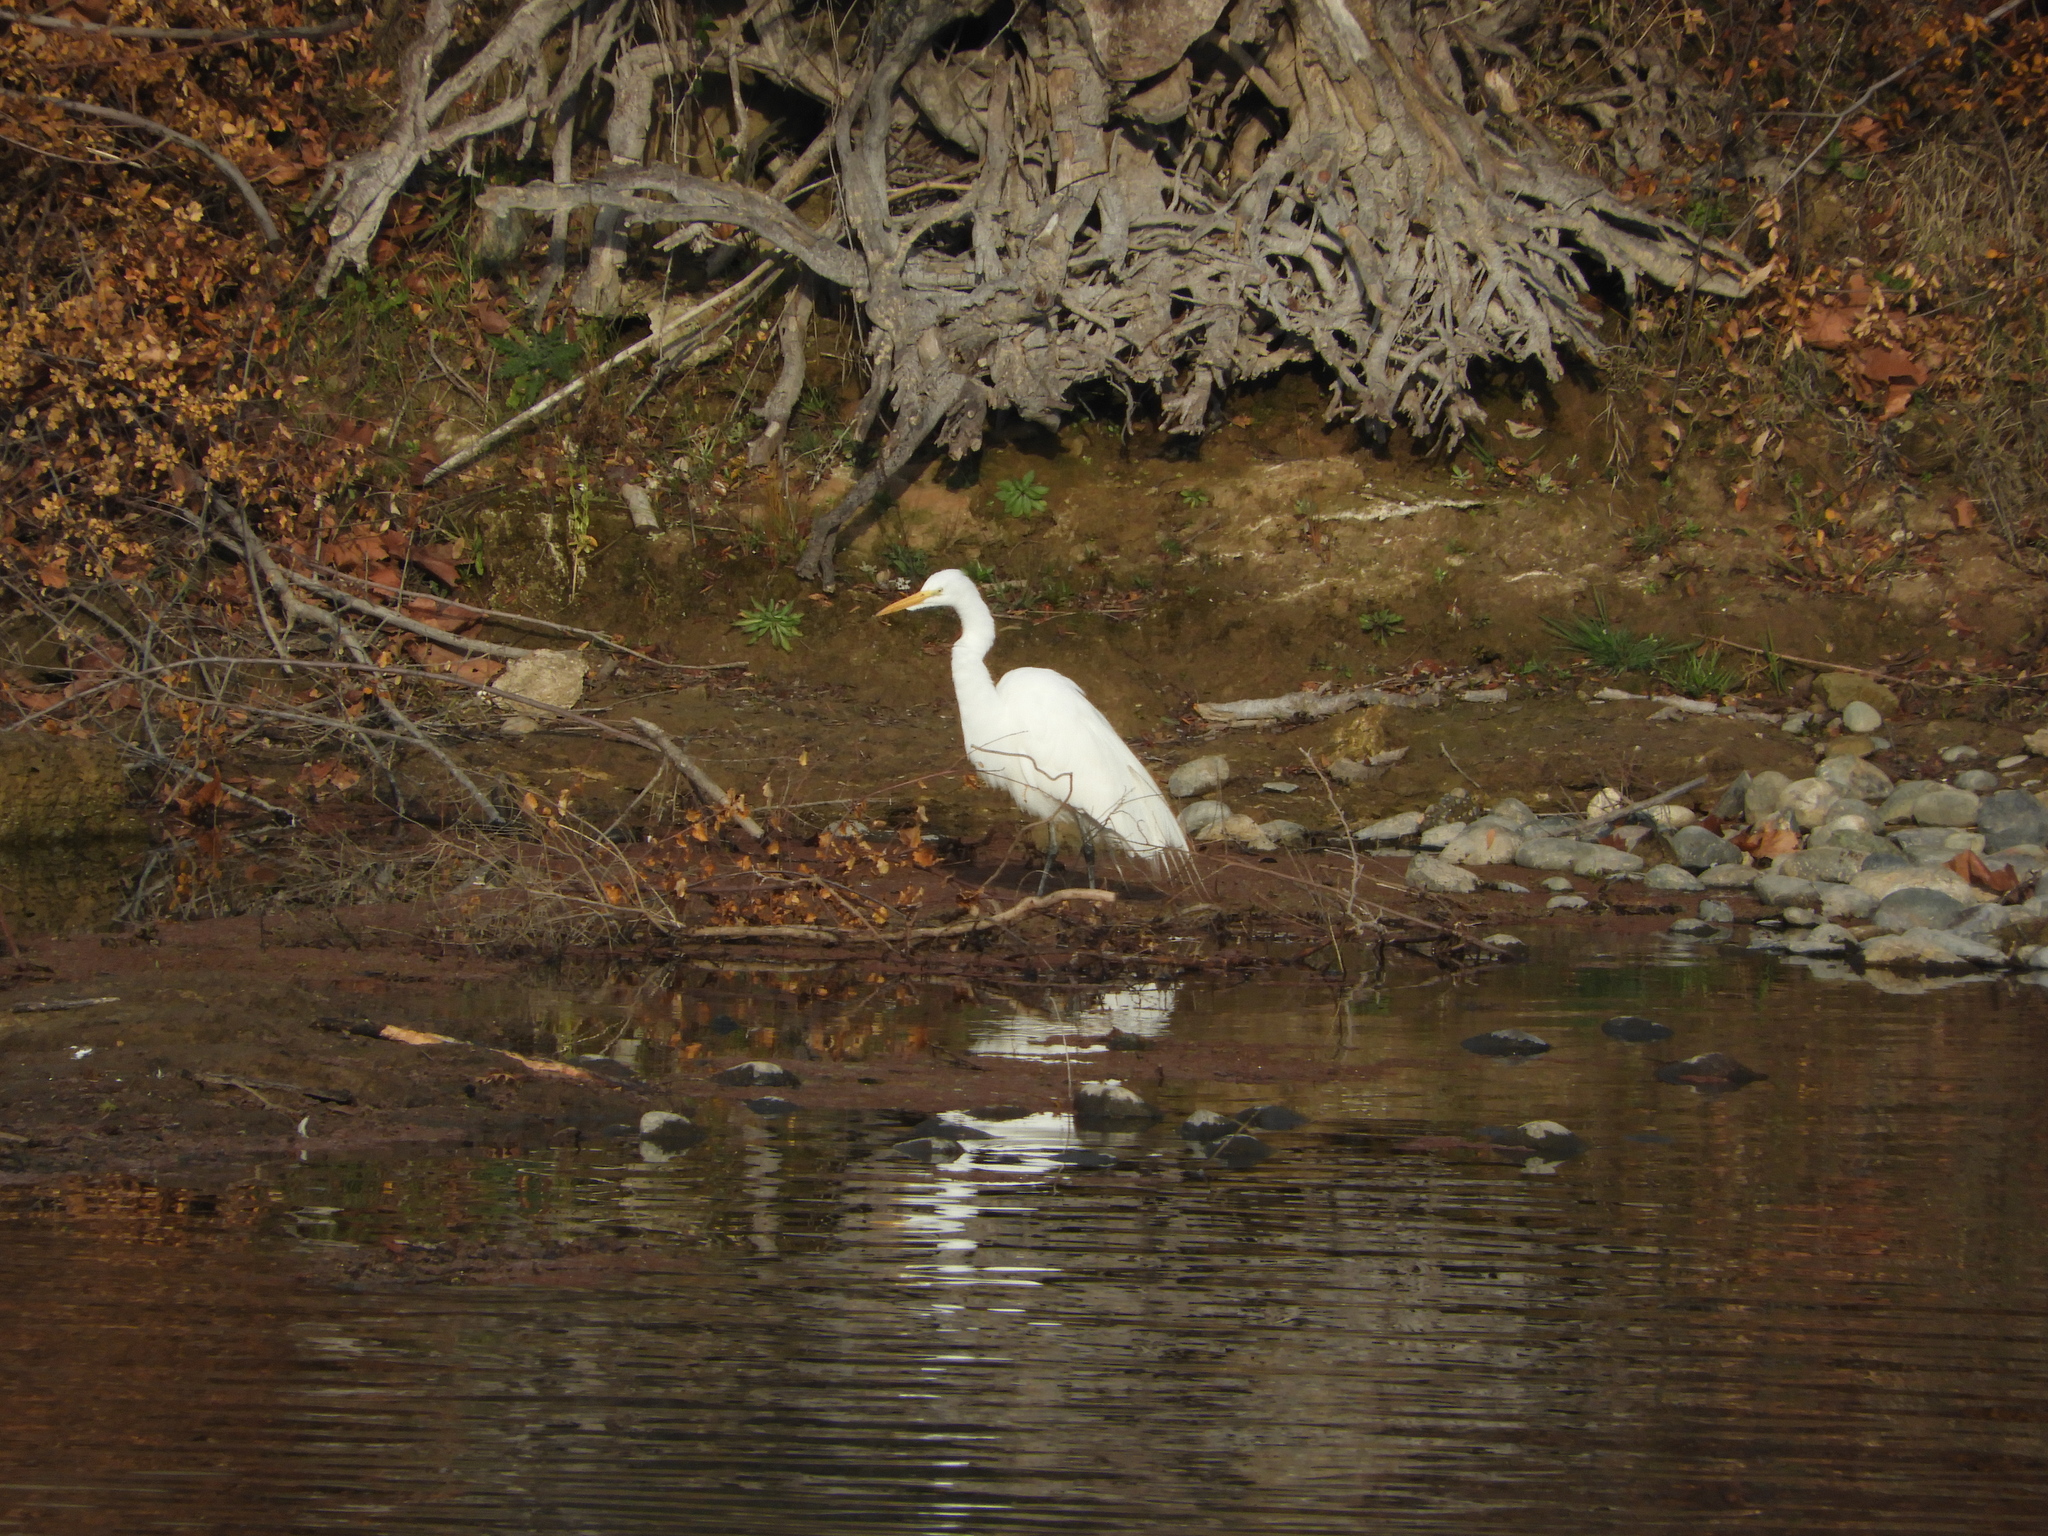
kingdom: Animalia
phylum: Chordata
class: Aves
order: Pelecaniformes
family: Ardeidae
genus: Ardea
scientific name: Ardea alba
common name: Great egret
